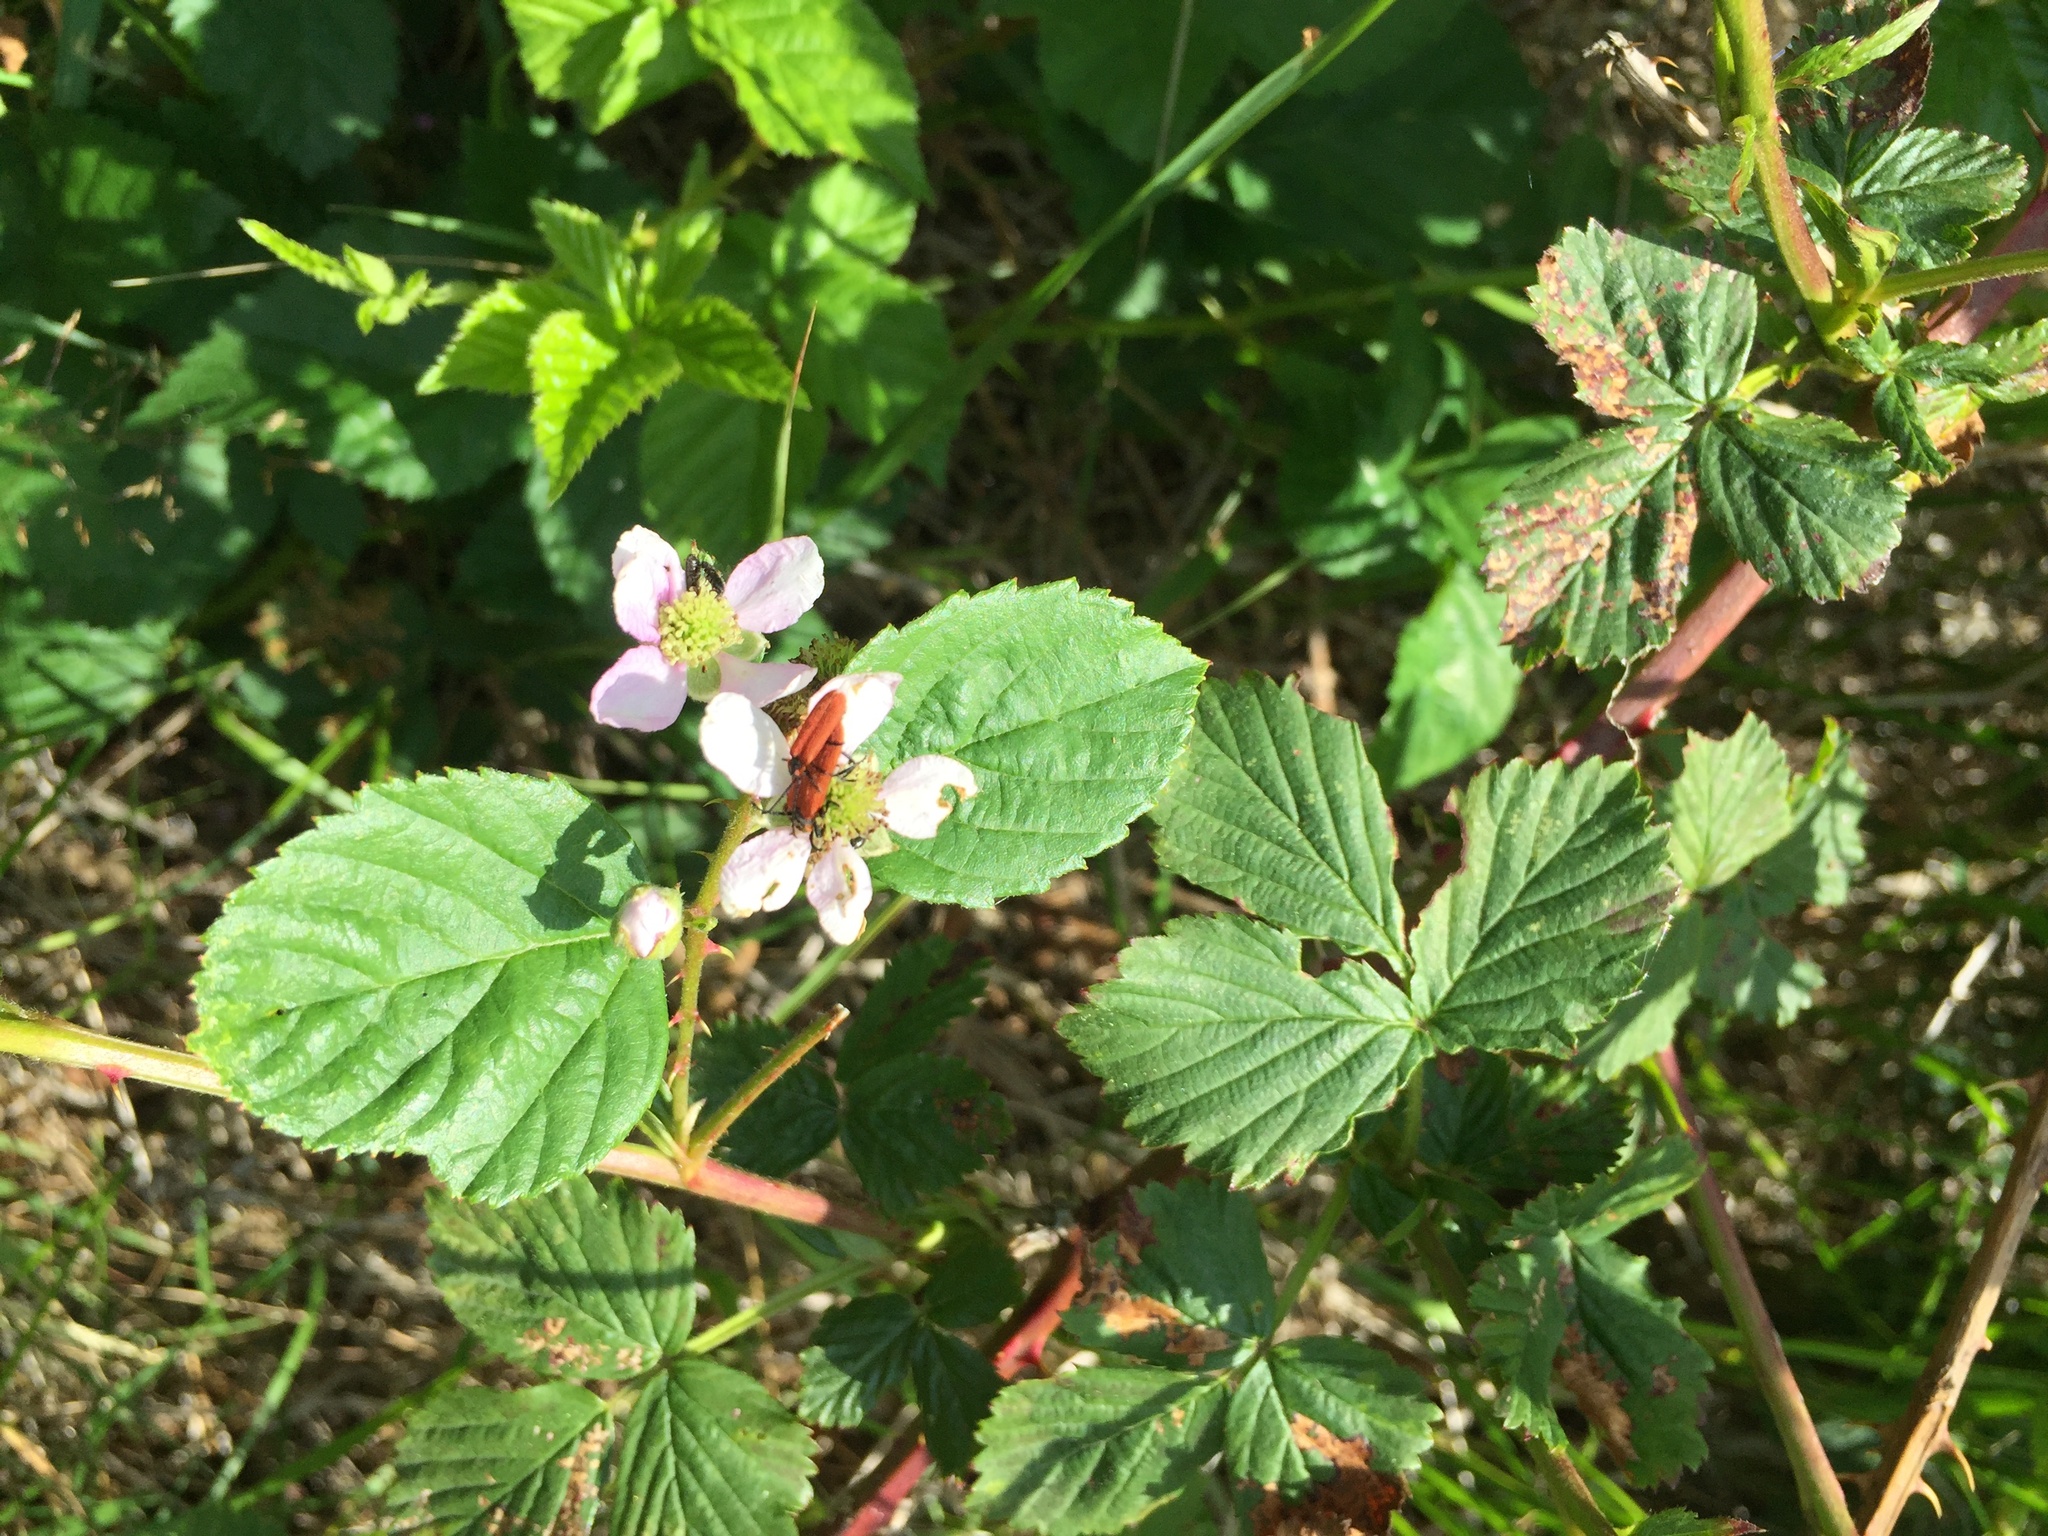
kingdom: Animalia
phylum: Arthropoda
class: Insecta
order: Coleoptera
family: Lycidae
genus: Lygistopterus
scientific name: Lygistopterus sanguineus
